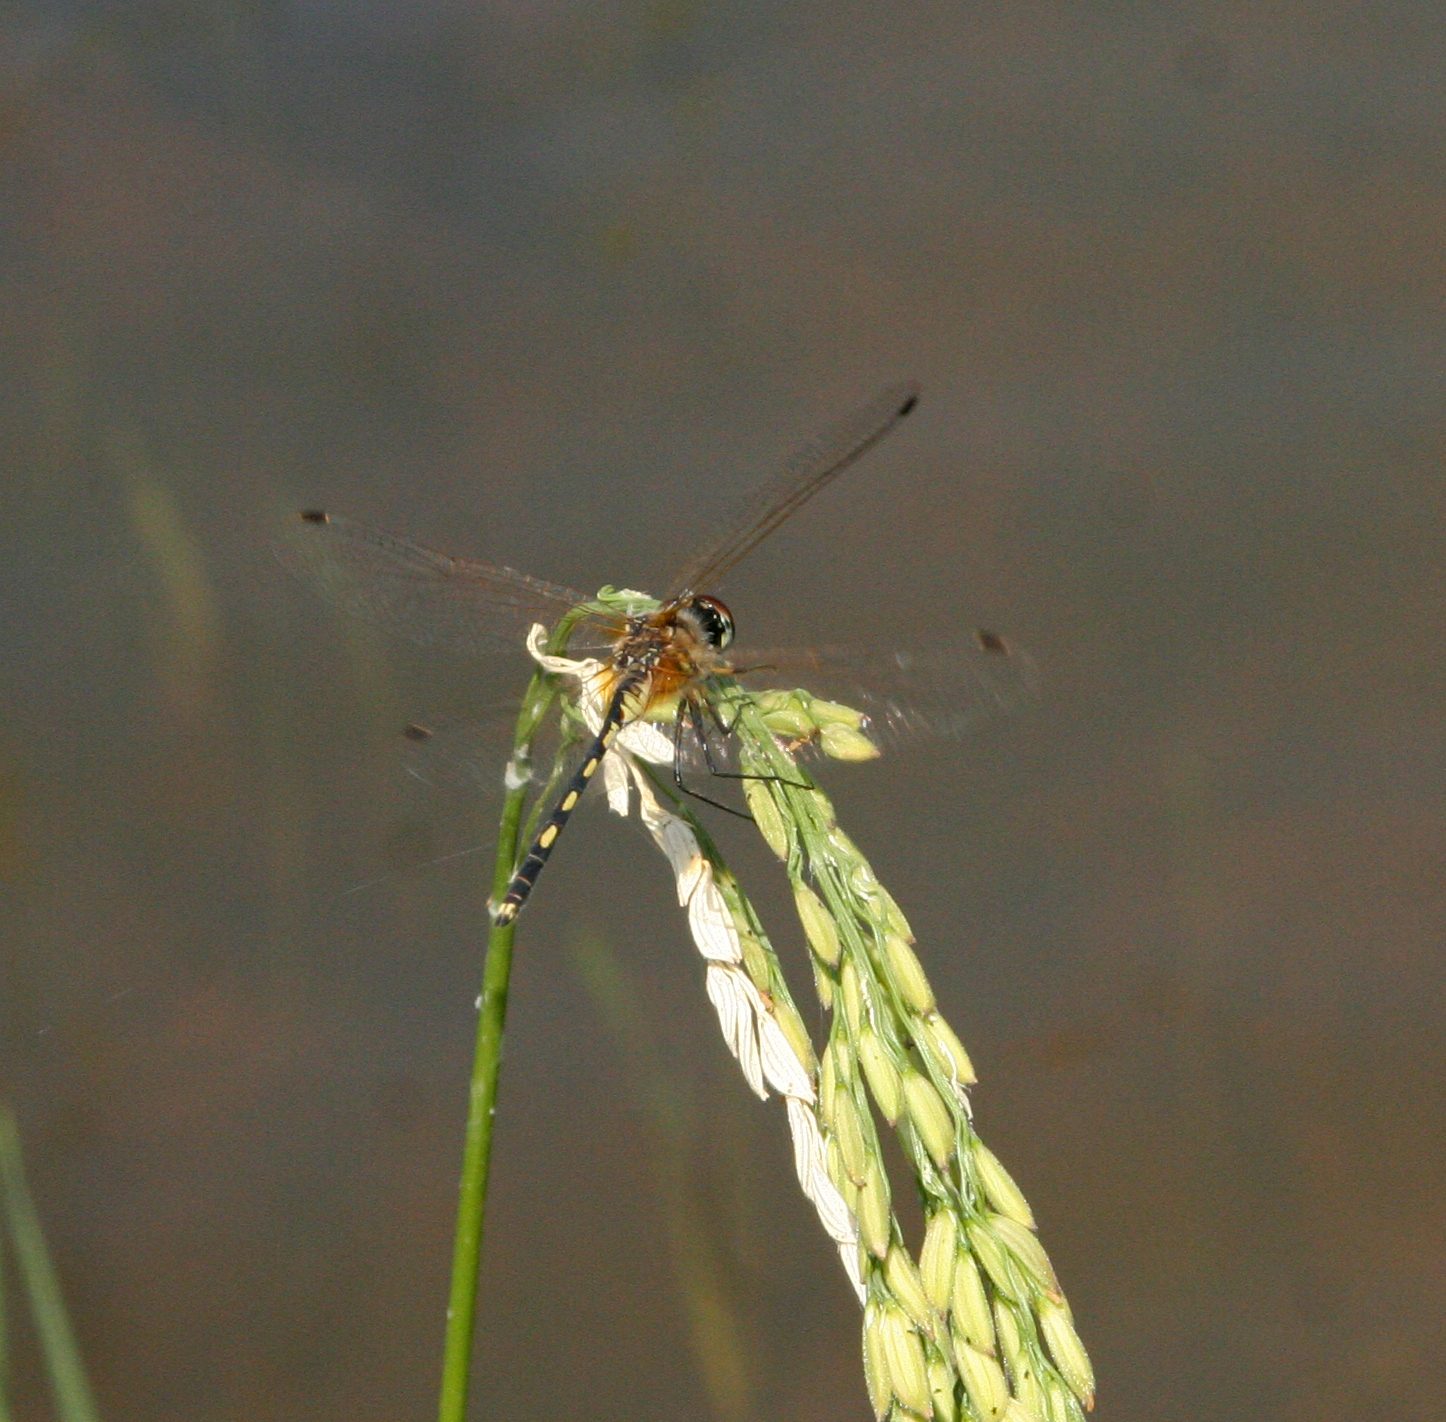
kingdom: Animalia
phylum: Arthropoda
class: Insecta
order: Odonata
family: Libellulidae
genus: Trithemis
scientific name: Trithemis pallidinervis
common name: Dancing dropwing
